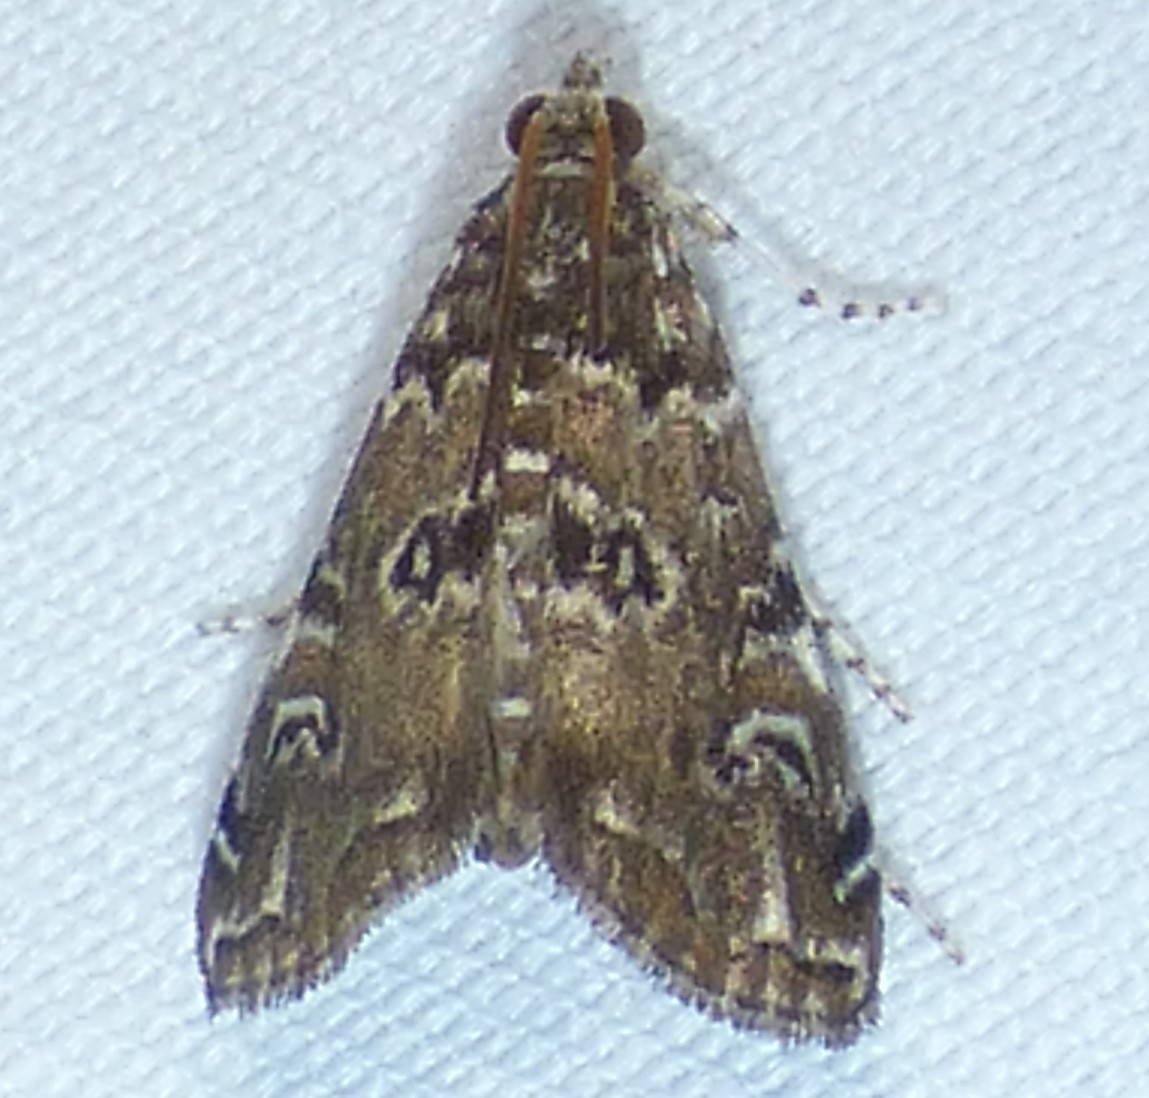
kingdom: Animalia
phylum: Arthropoda
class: Insecta
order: Lepidoptera
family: Crambidae
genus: Elophila
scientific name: Elophila gyralis
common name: Waterlily borer moth
